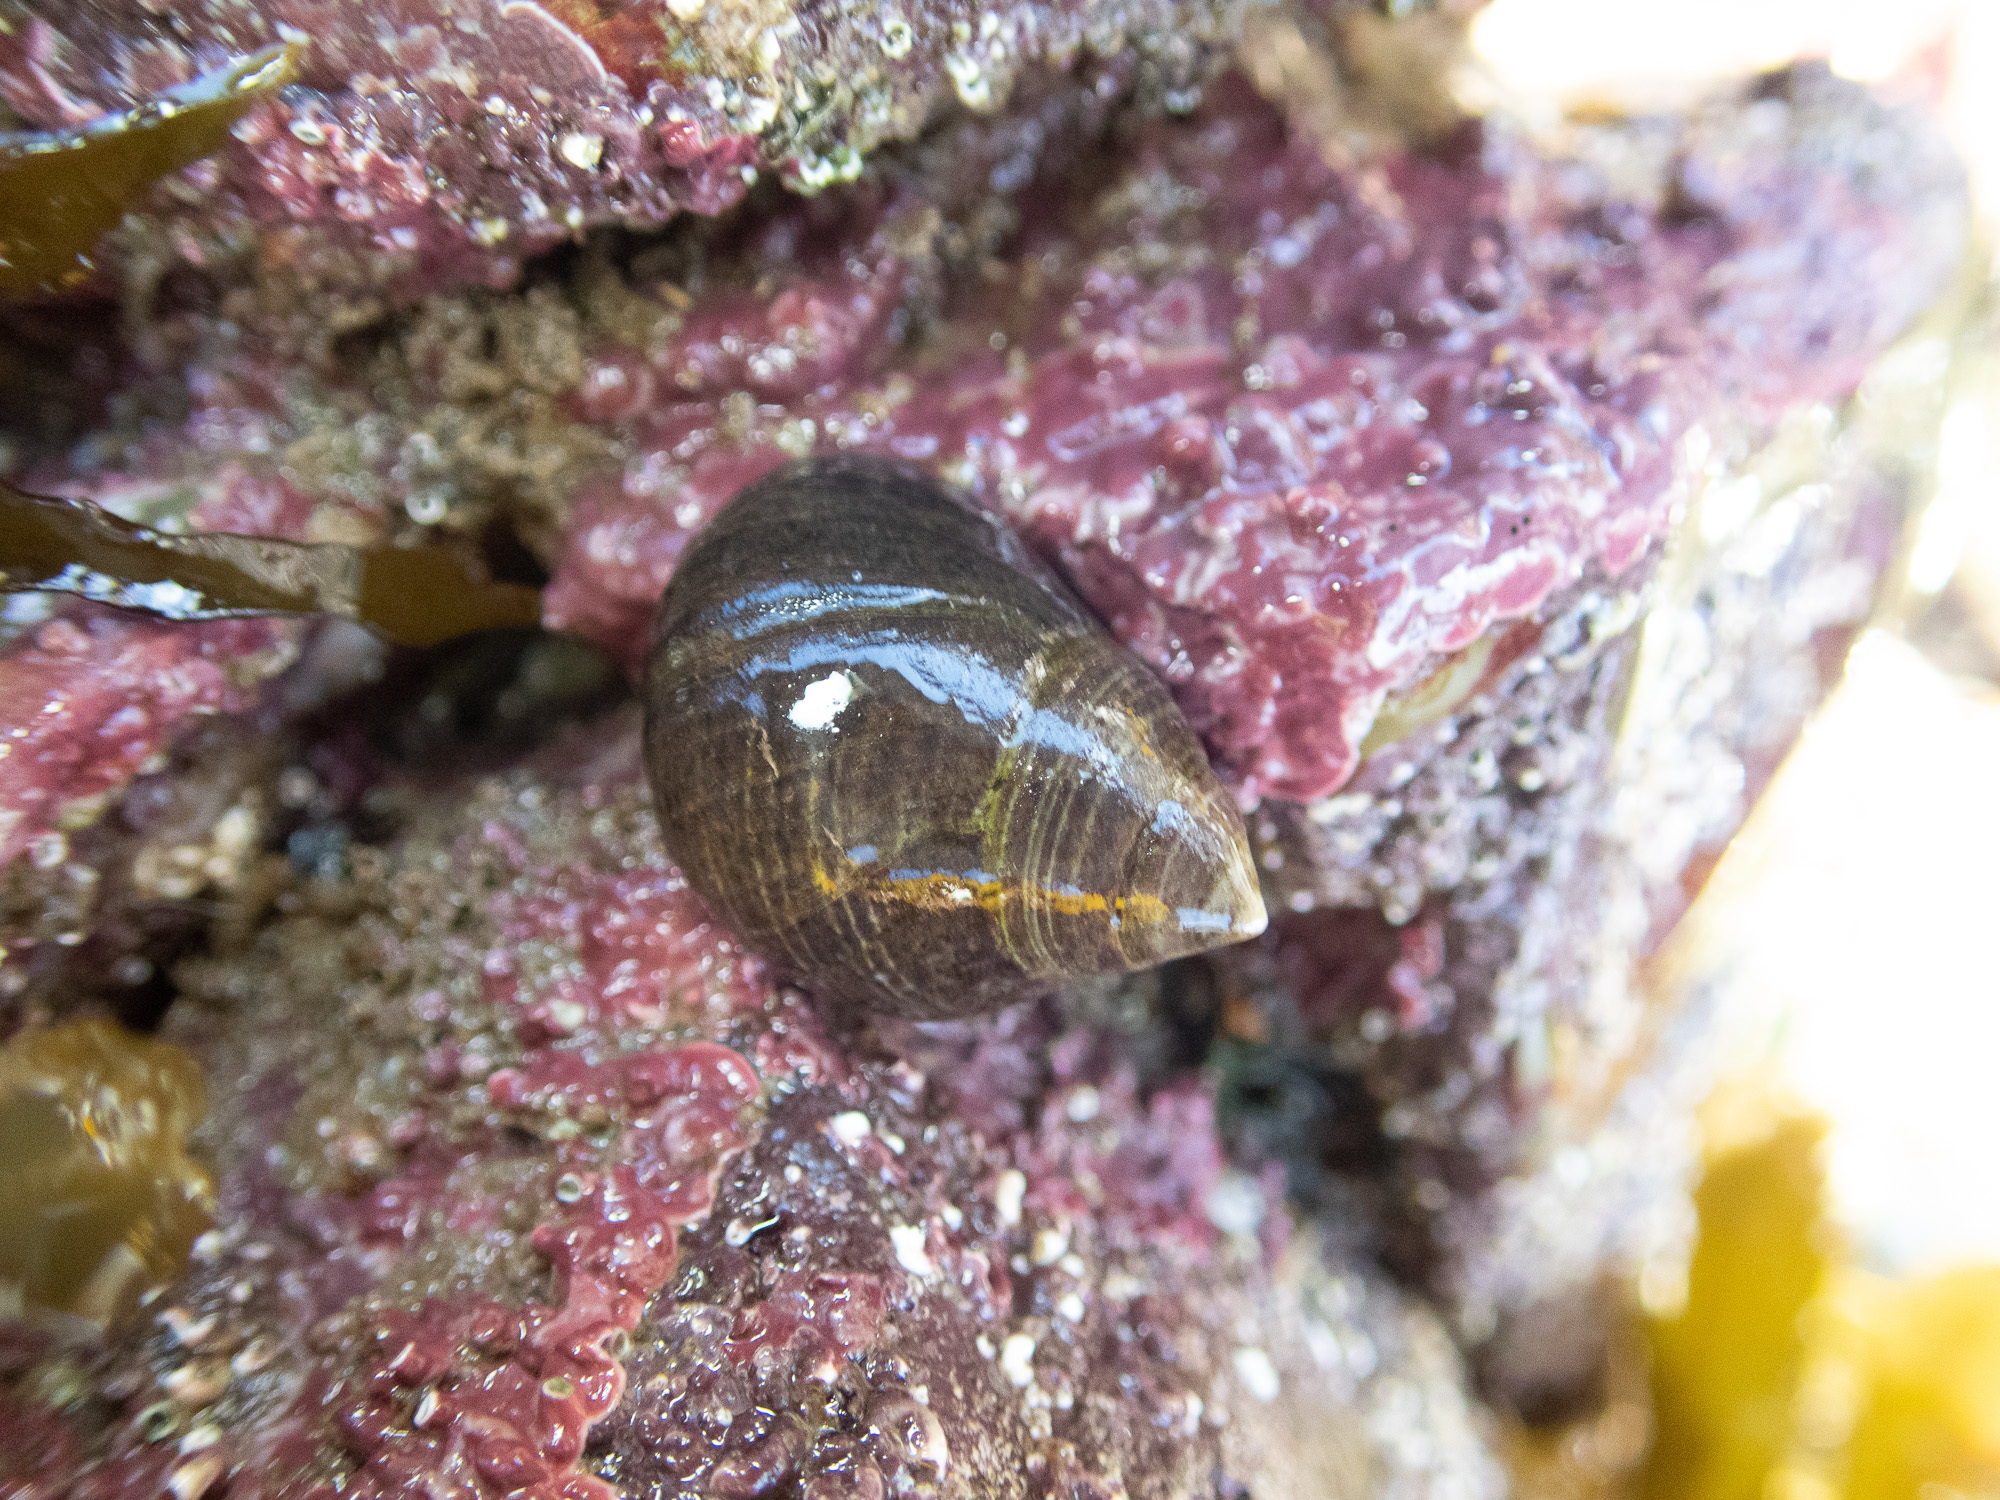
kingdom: Animalia
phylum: Mollusca
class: Gastropoda
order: Littorinimorpha
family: Littorinidae
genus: Littorina
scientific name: Littorina littorea
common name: Common periwinkle
